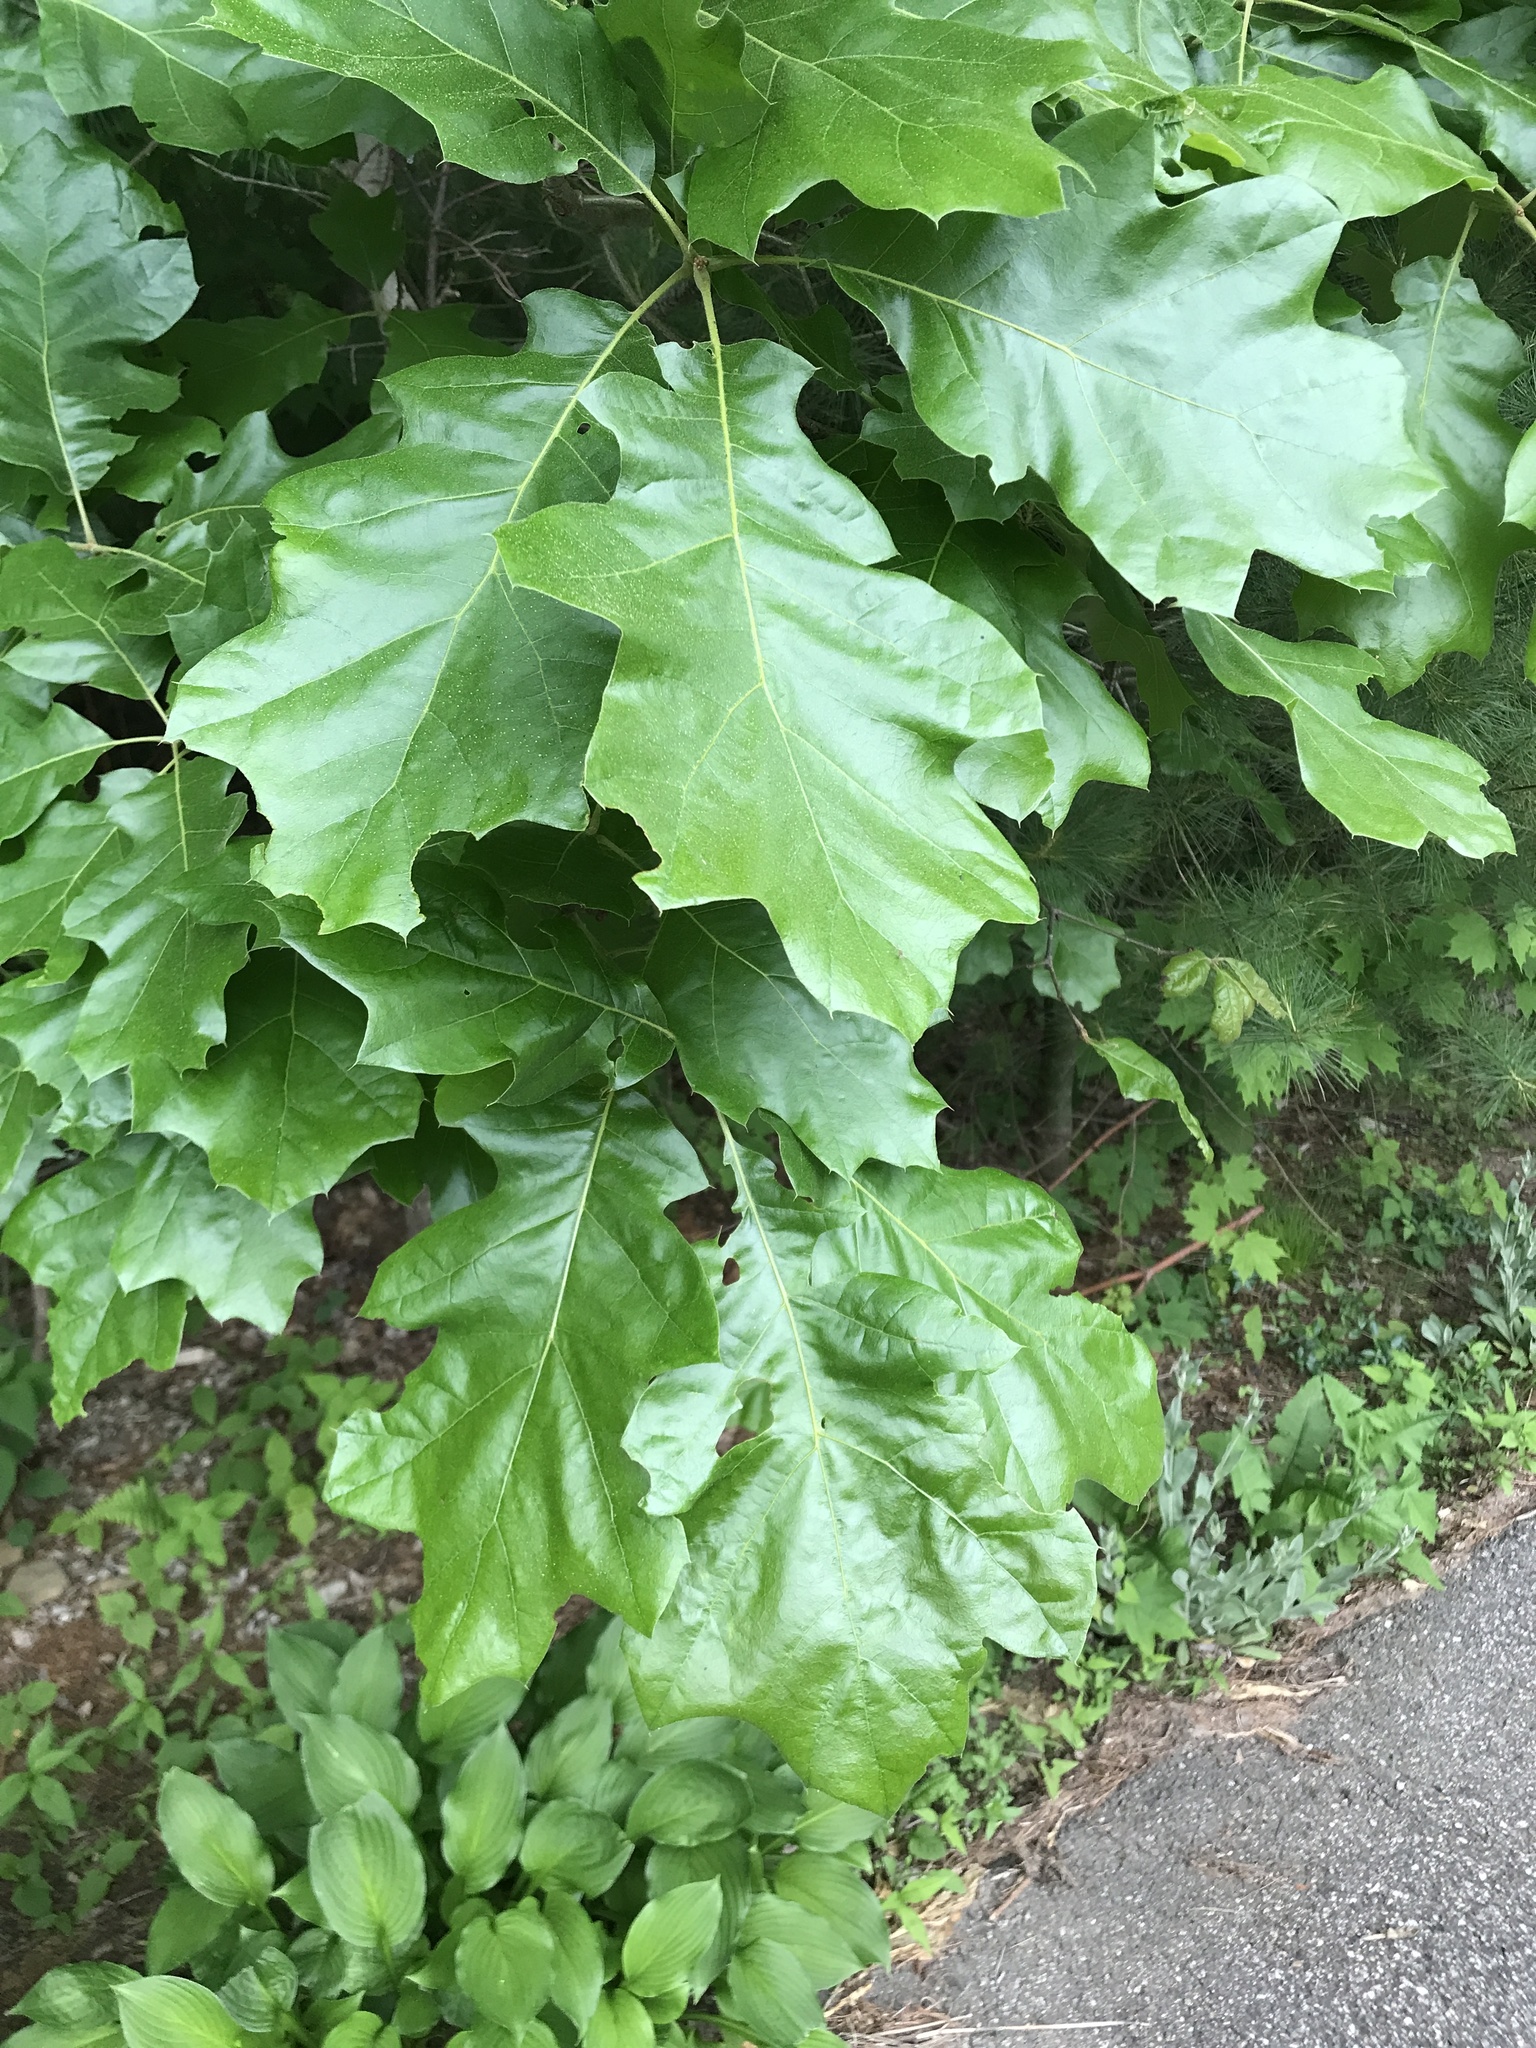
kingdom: Plantae
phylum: Tracheophyta
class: Magnoliopsida
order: Fagales
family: Fagaceae
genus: Quercus
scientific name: Quercus velutina
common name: Black oak
